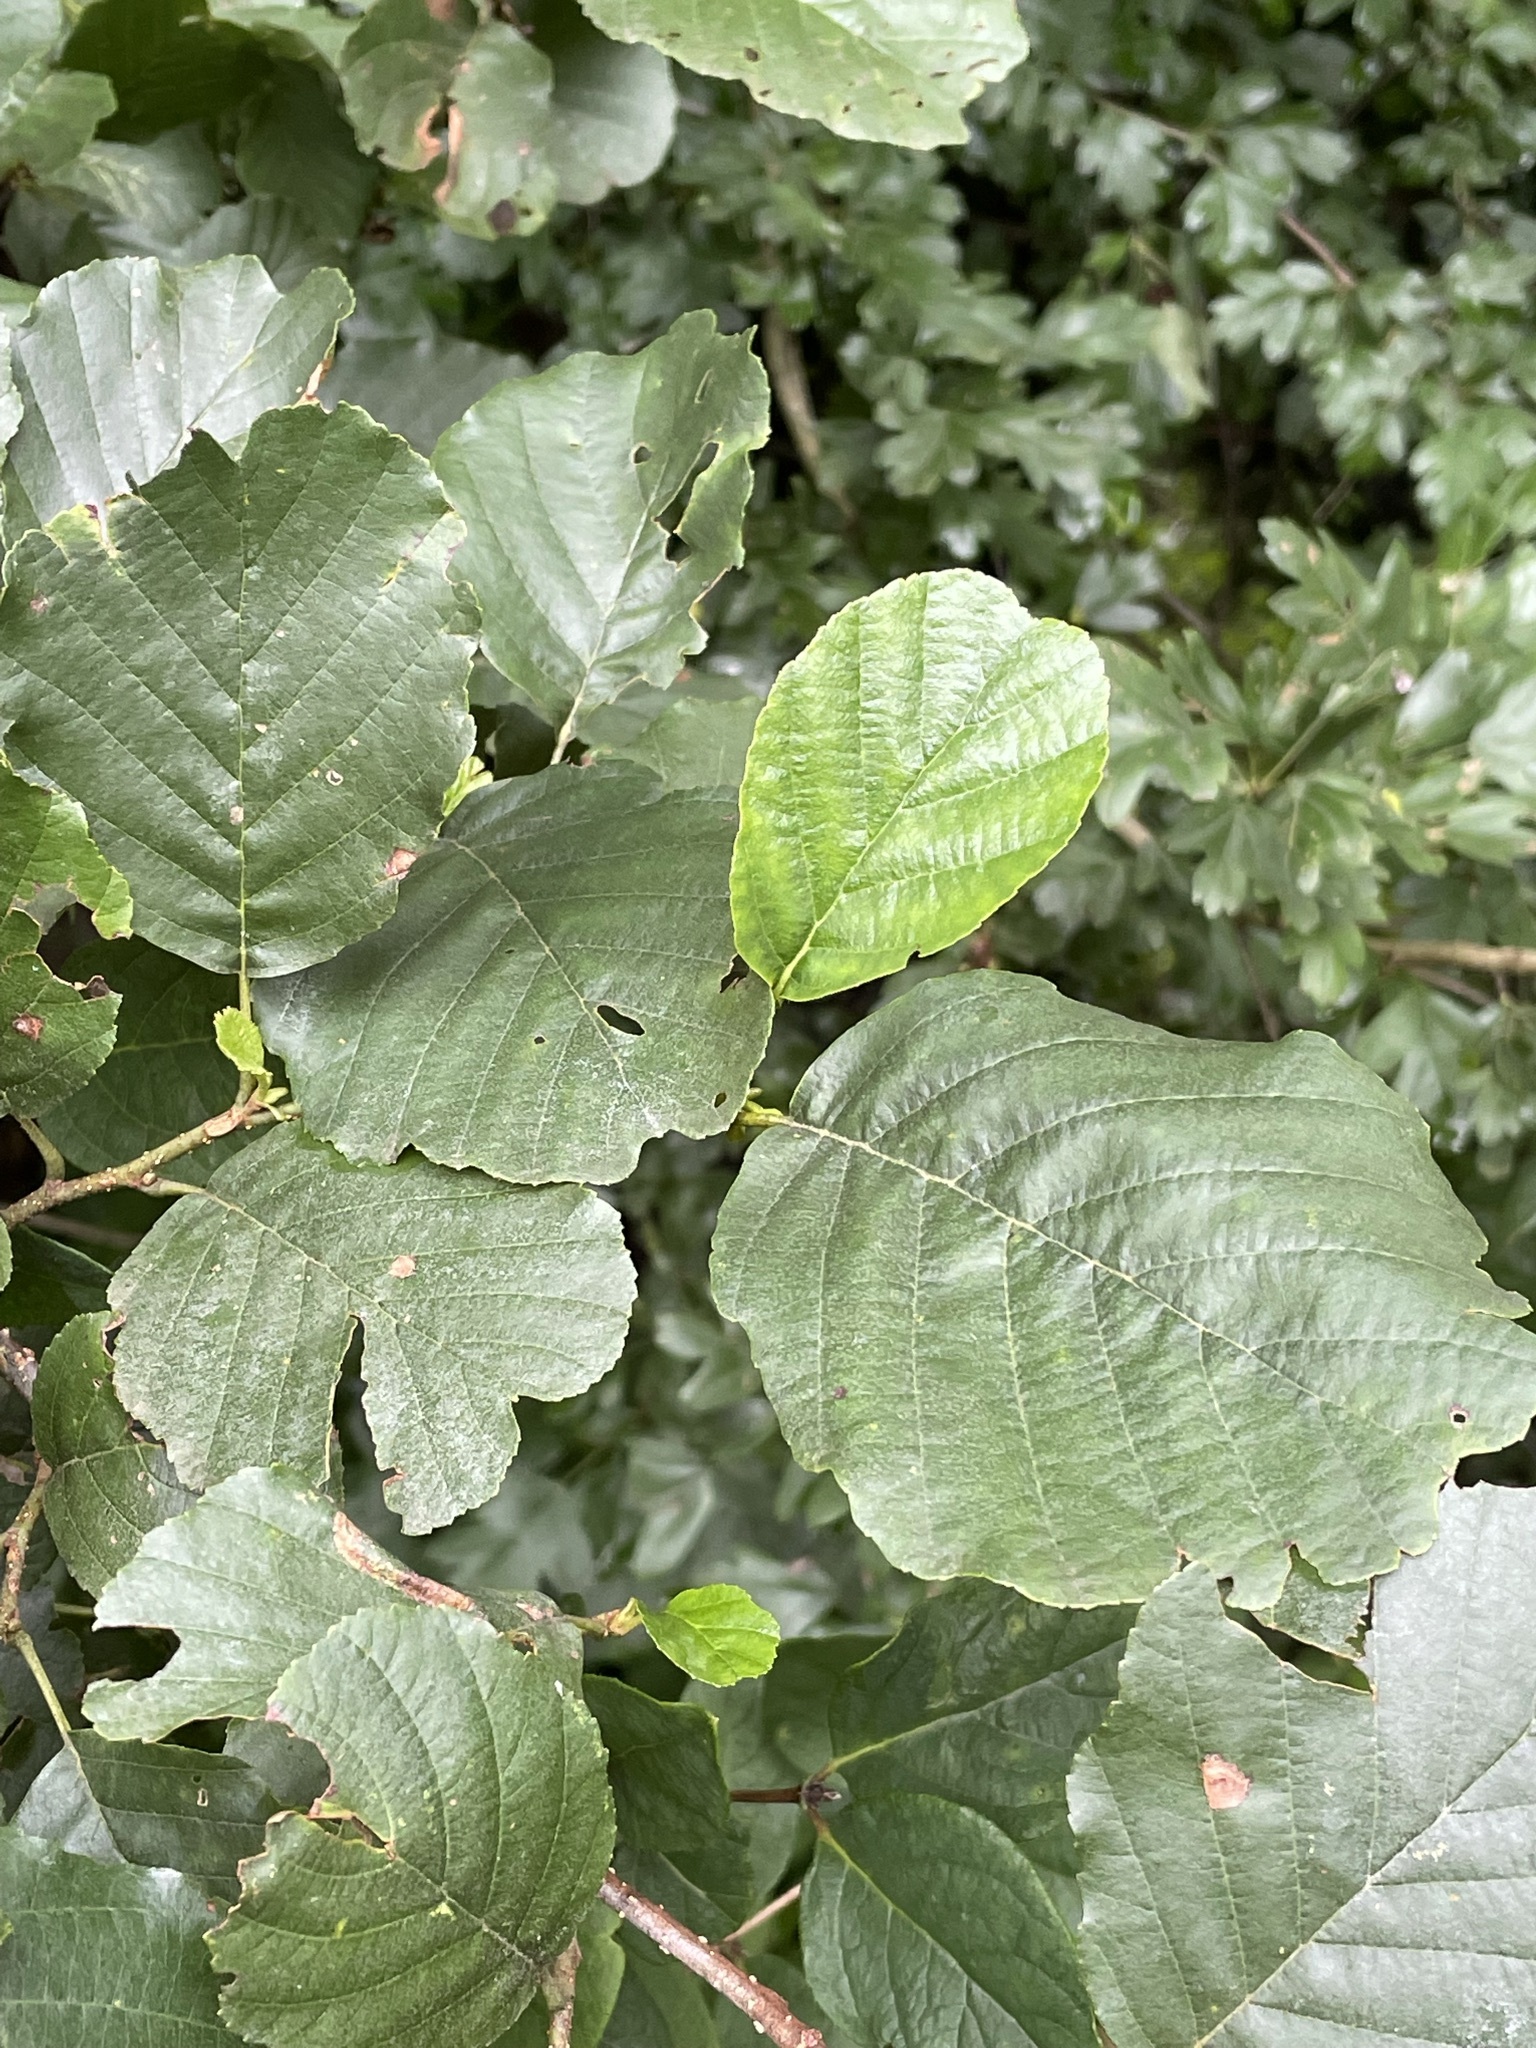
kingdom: Plantae
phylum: Tracheophyta
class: Magnoliopsida
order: Fagales
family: Betulaceae
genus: Alnus
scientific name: Alnus glutinosa
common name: Black alder
